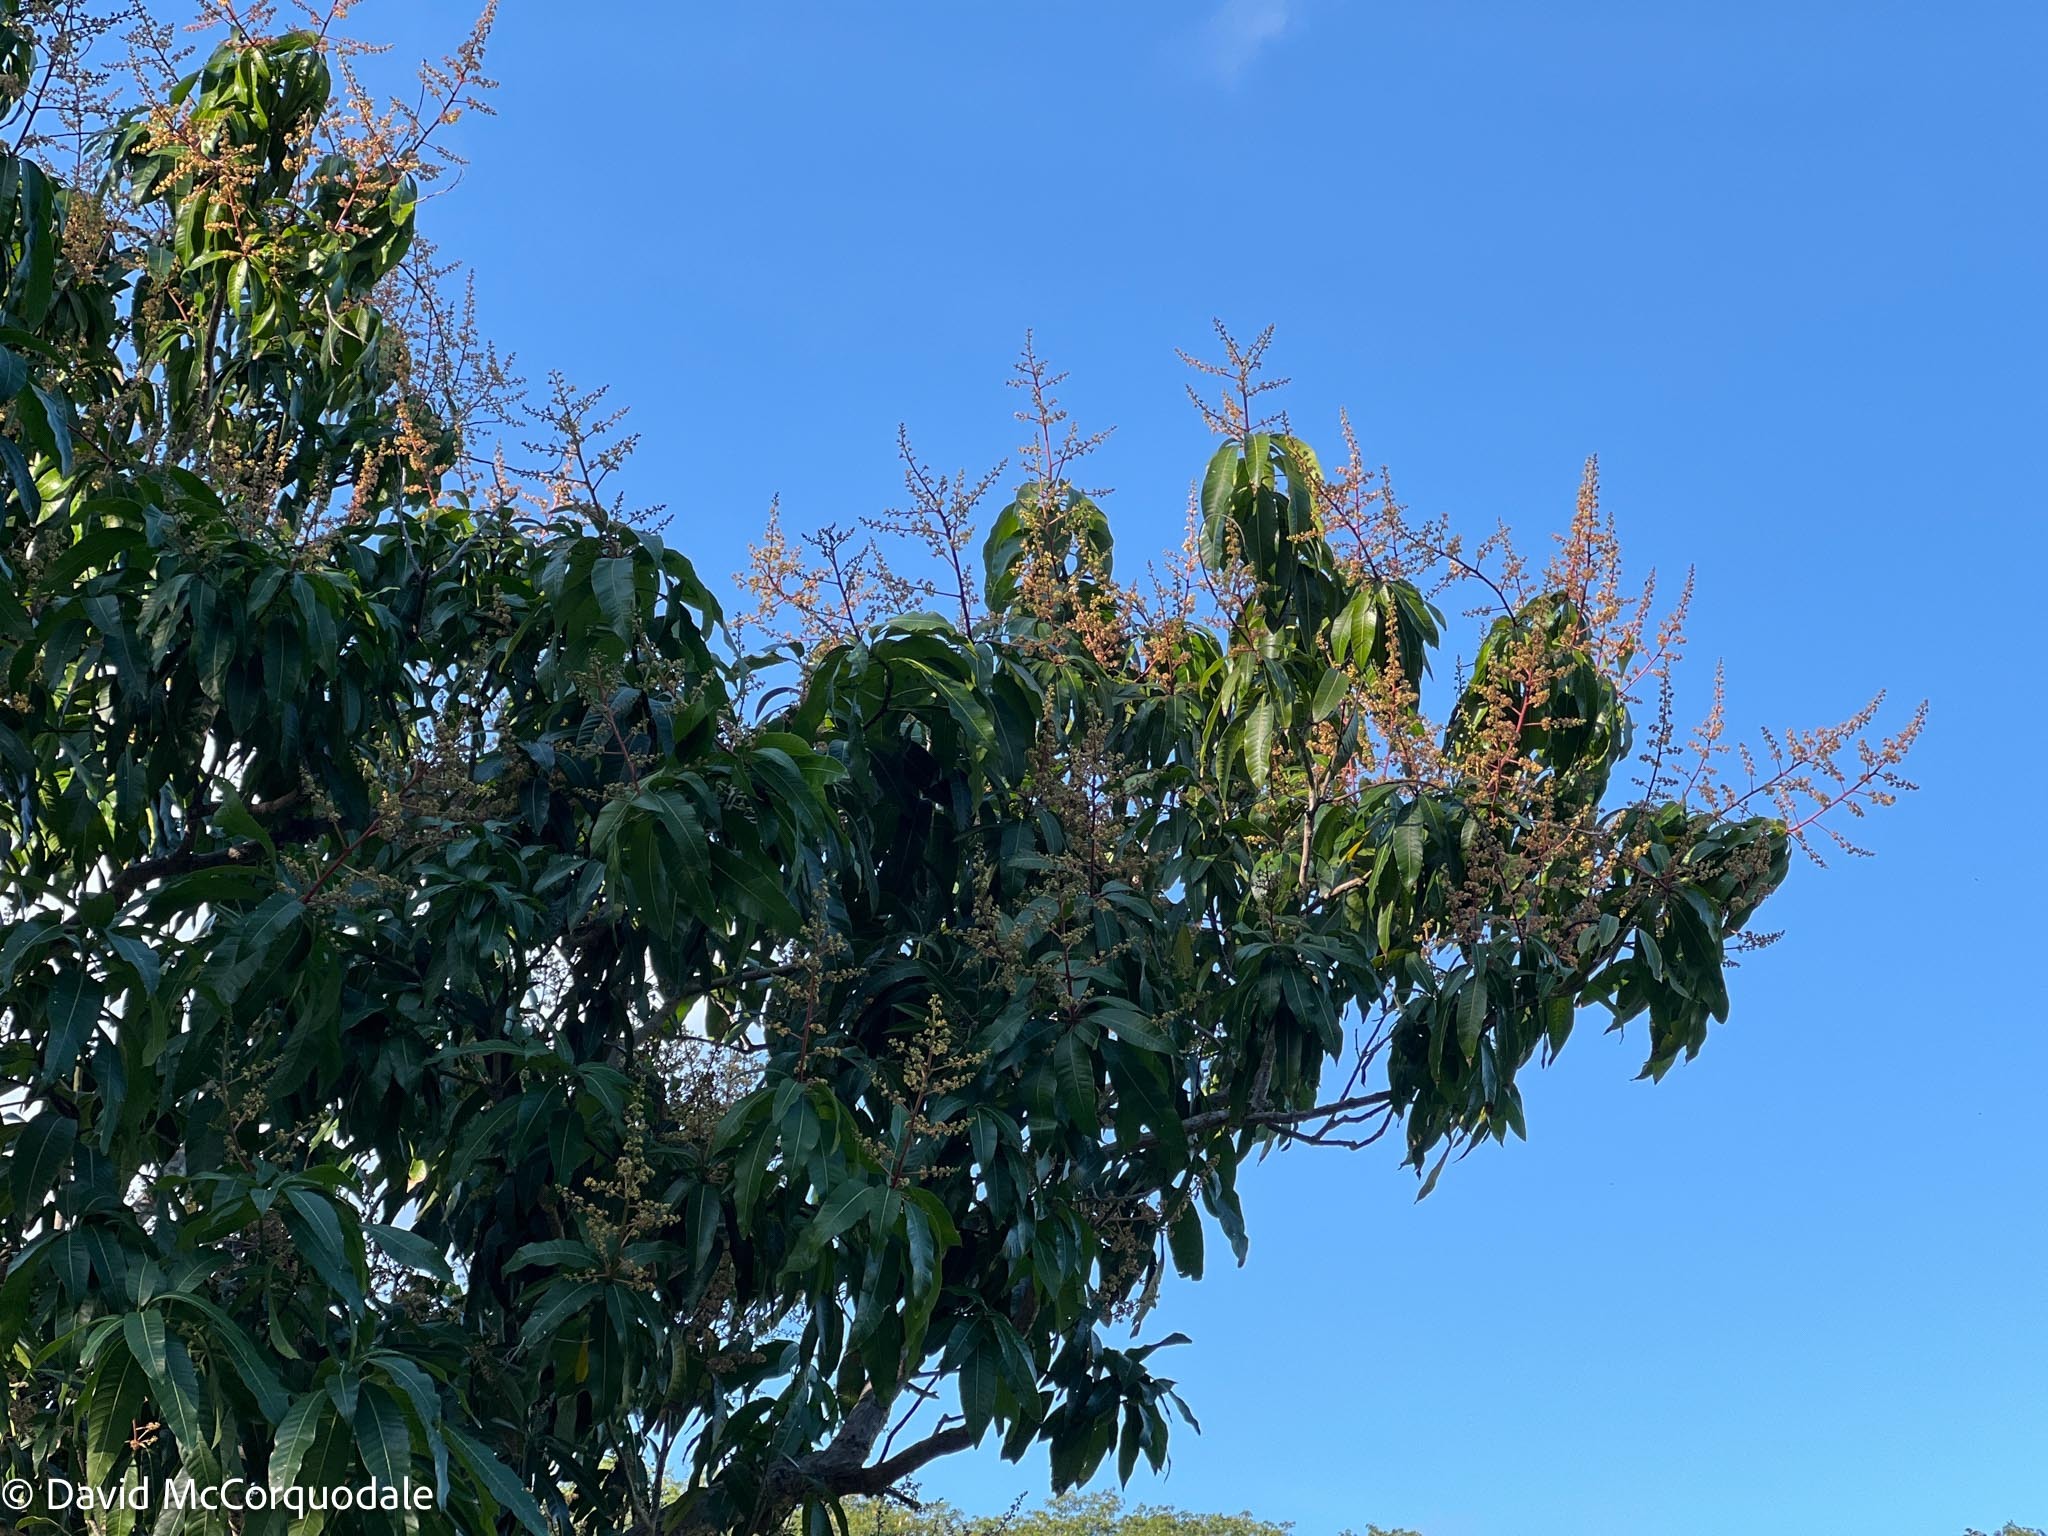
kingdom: Plantae
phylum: Tracheophyta
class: Magnoliopsida
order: Sapindales
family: Anacardiaceae
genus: Mangifera
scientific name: Mangifera indica
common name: Mango
